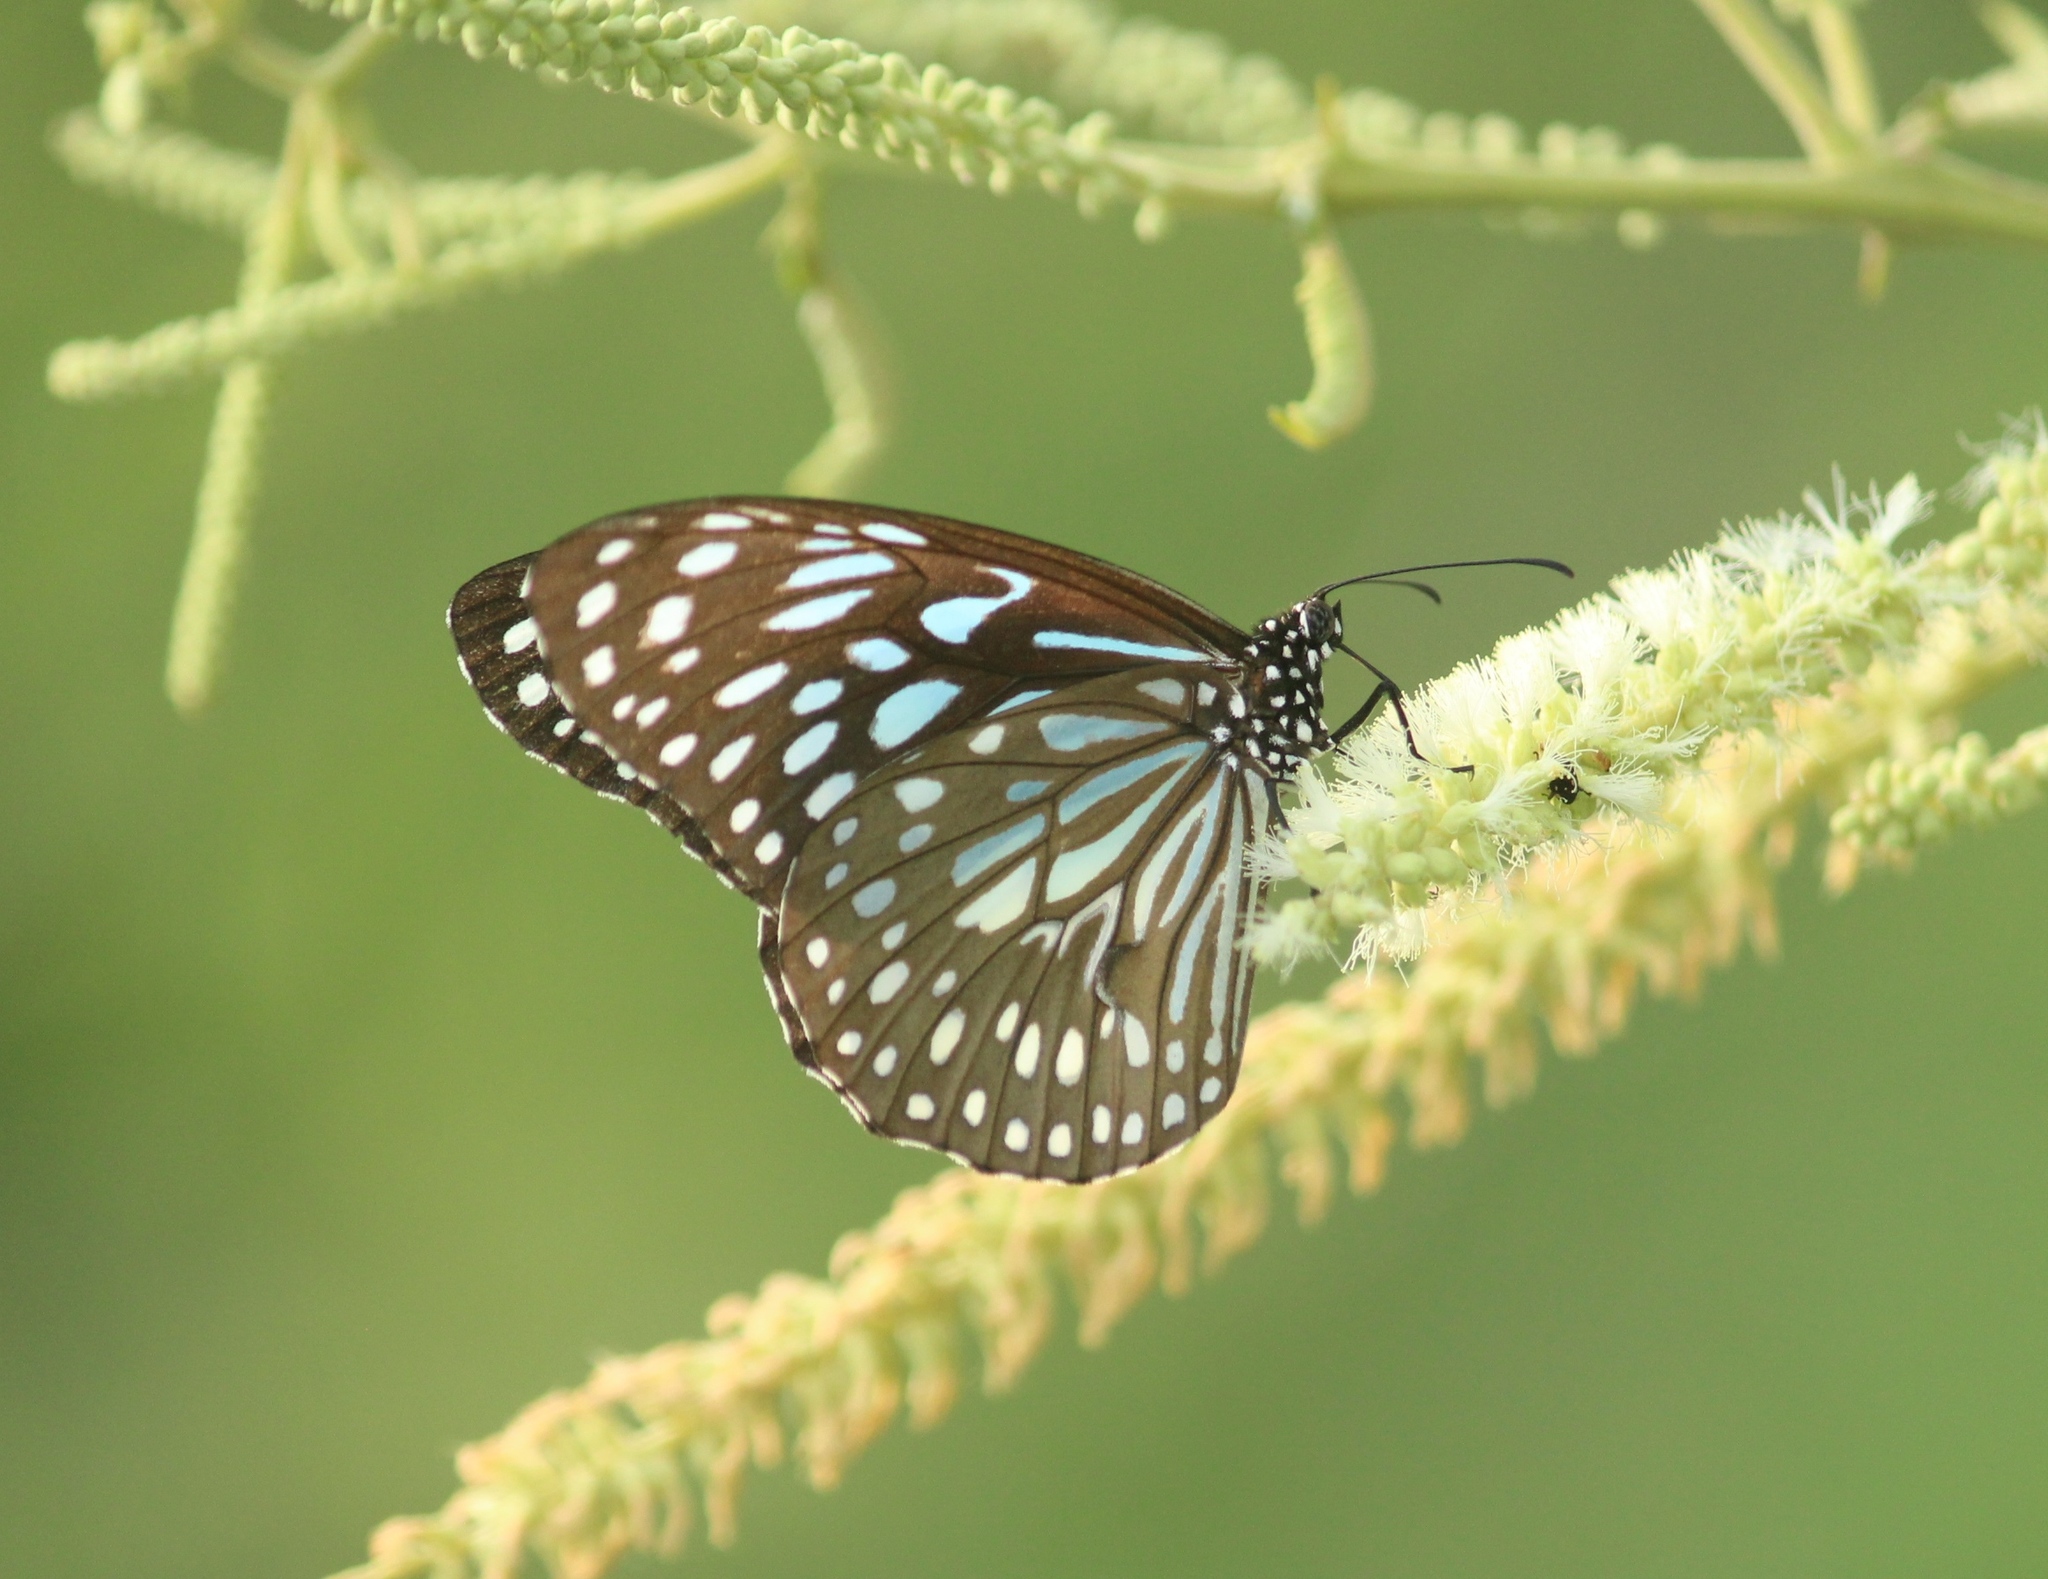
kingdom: Animalia
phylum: Arthropoda
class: Insecta
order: Lepidoptera
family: Nymphalidae
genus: Tirumala
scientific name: Tirumala septentrionis
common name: Dark blue tiger butterfly
